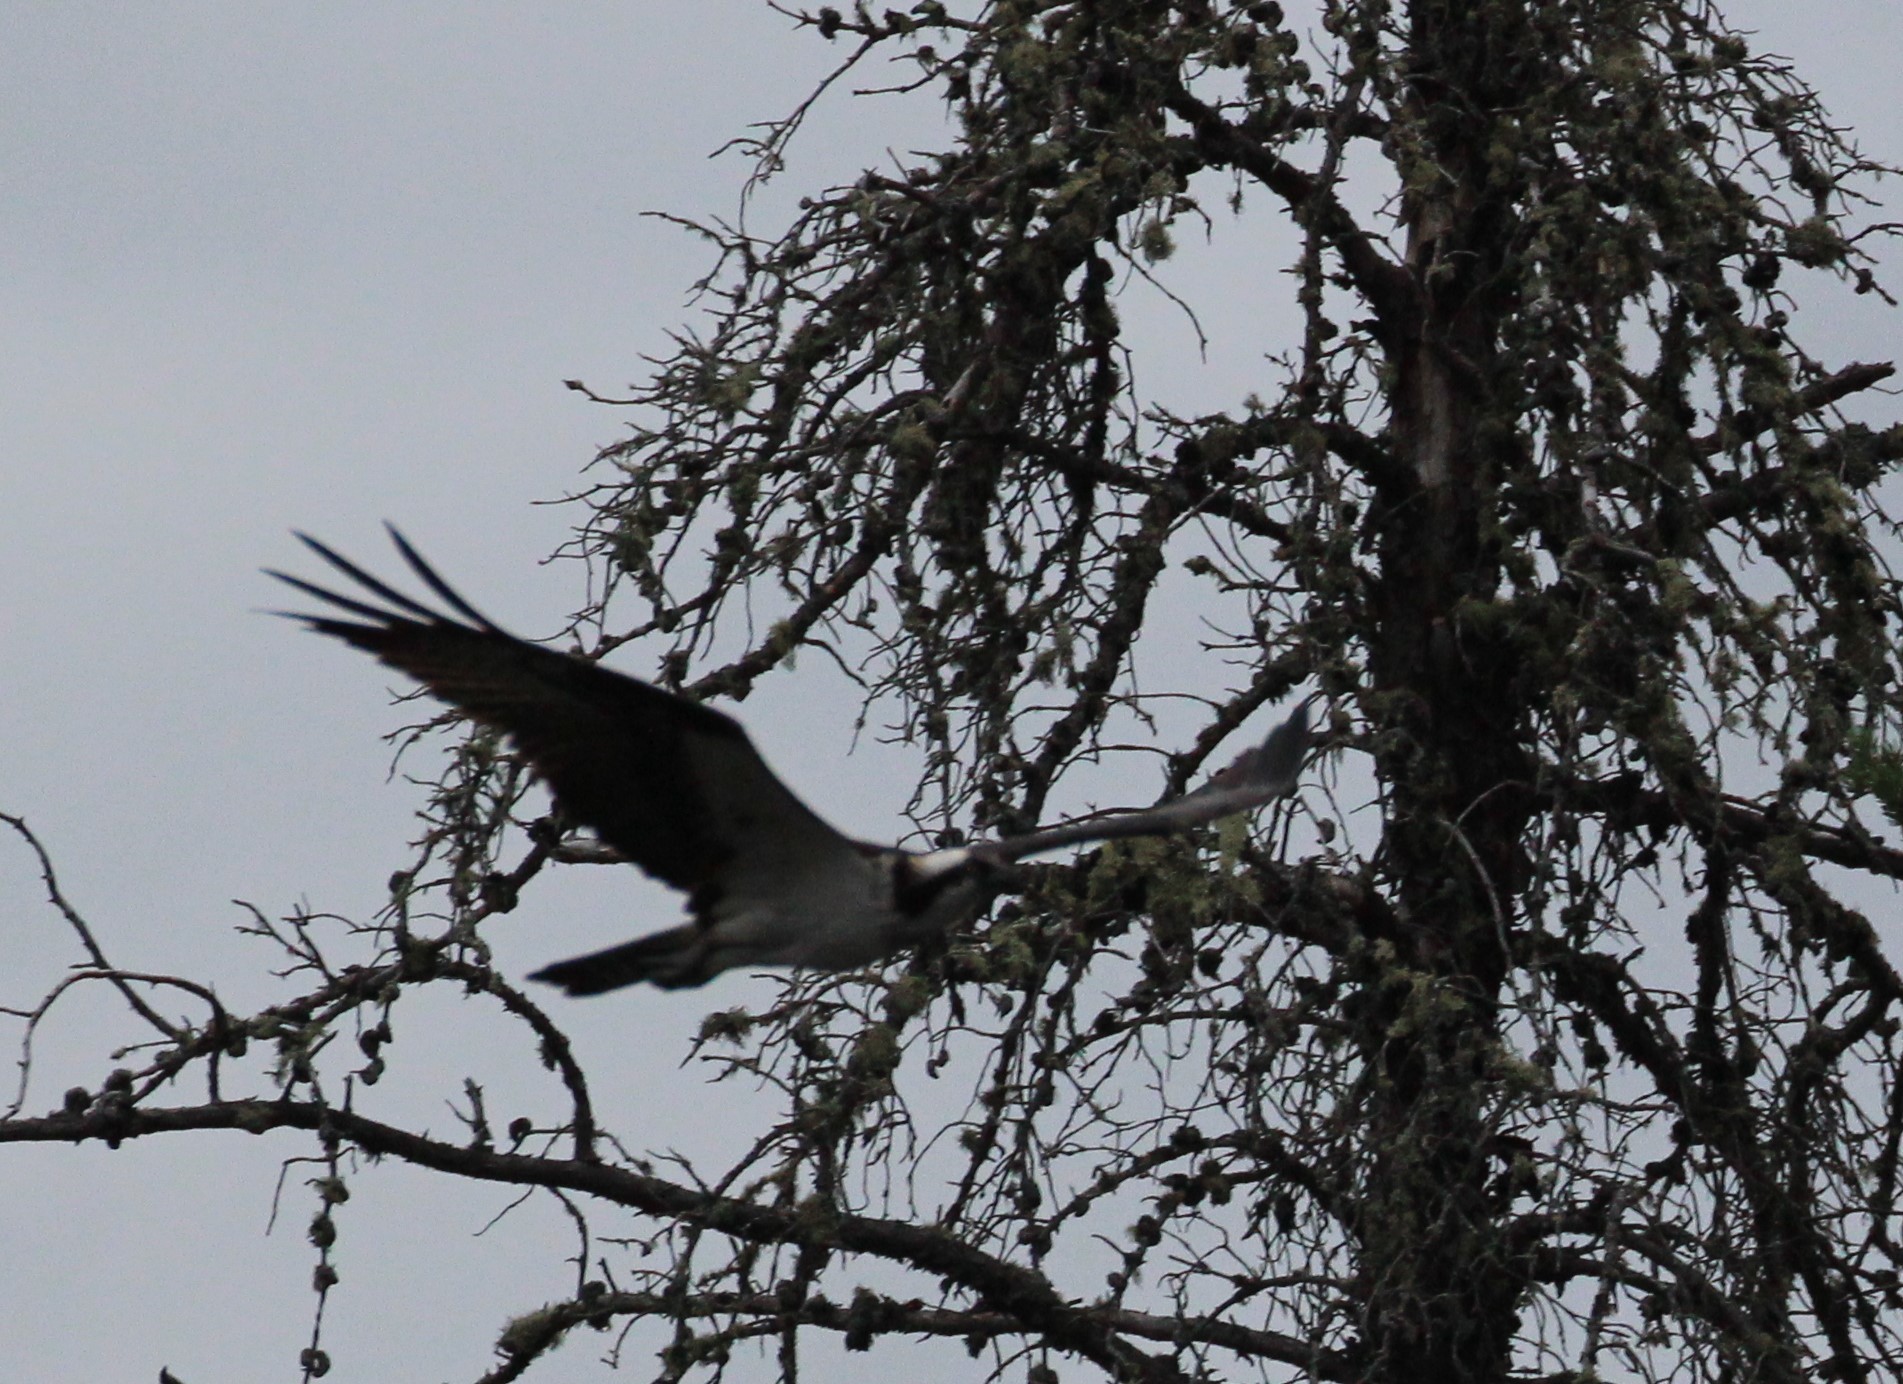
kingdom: Animalia
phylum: Chordata
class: Aves
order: Accipitriformes
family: Pandionidae
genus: Pandion
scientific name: Pandion haliaetus
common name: Osprey
